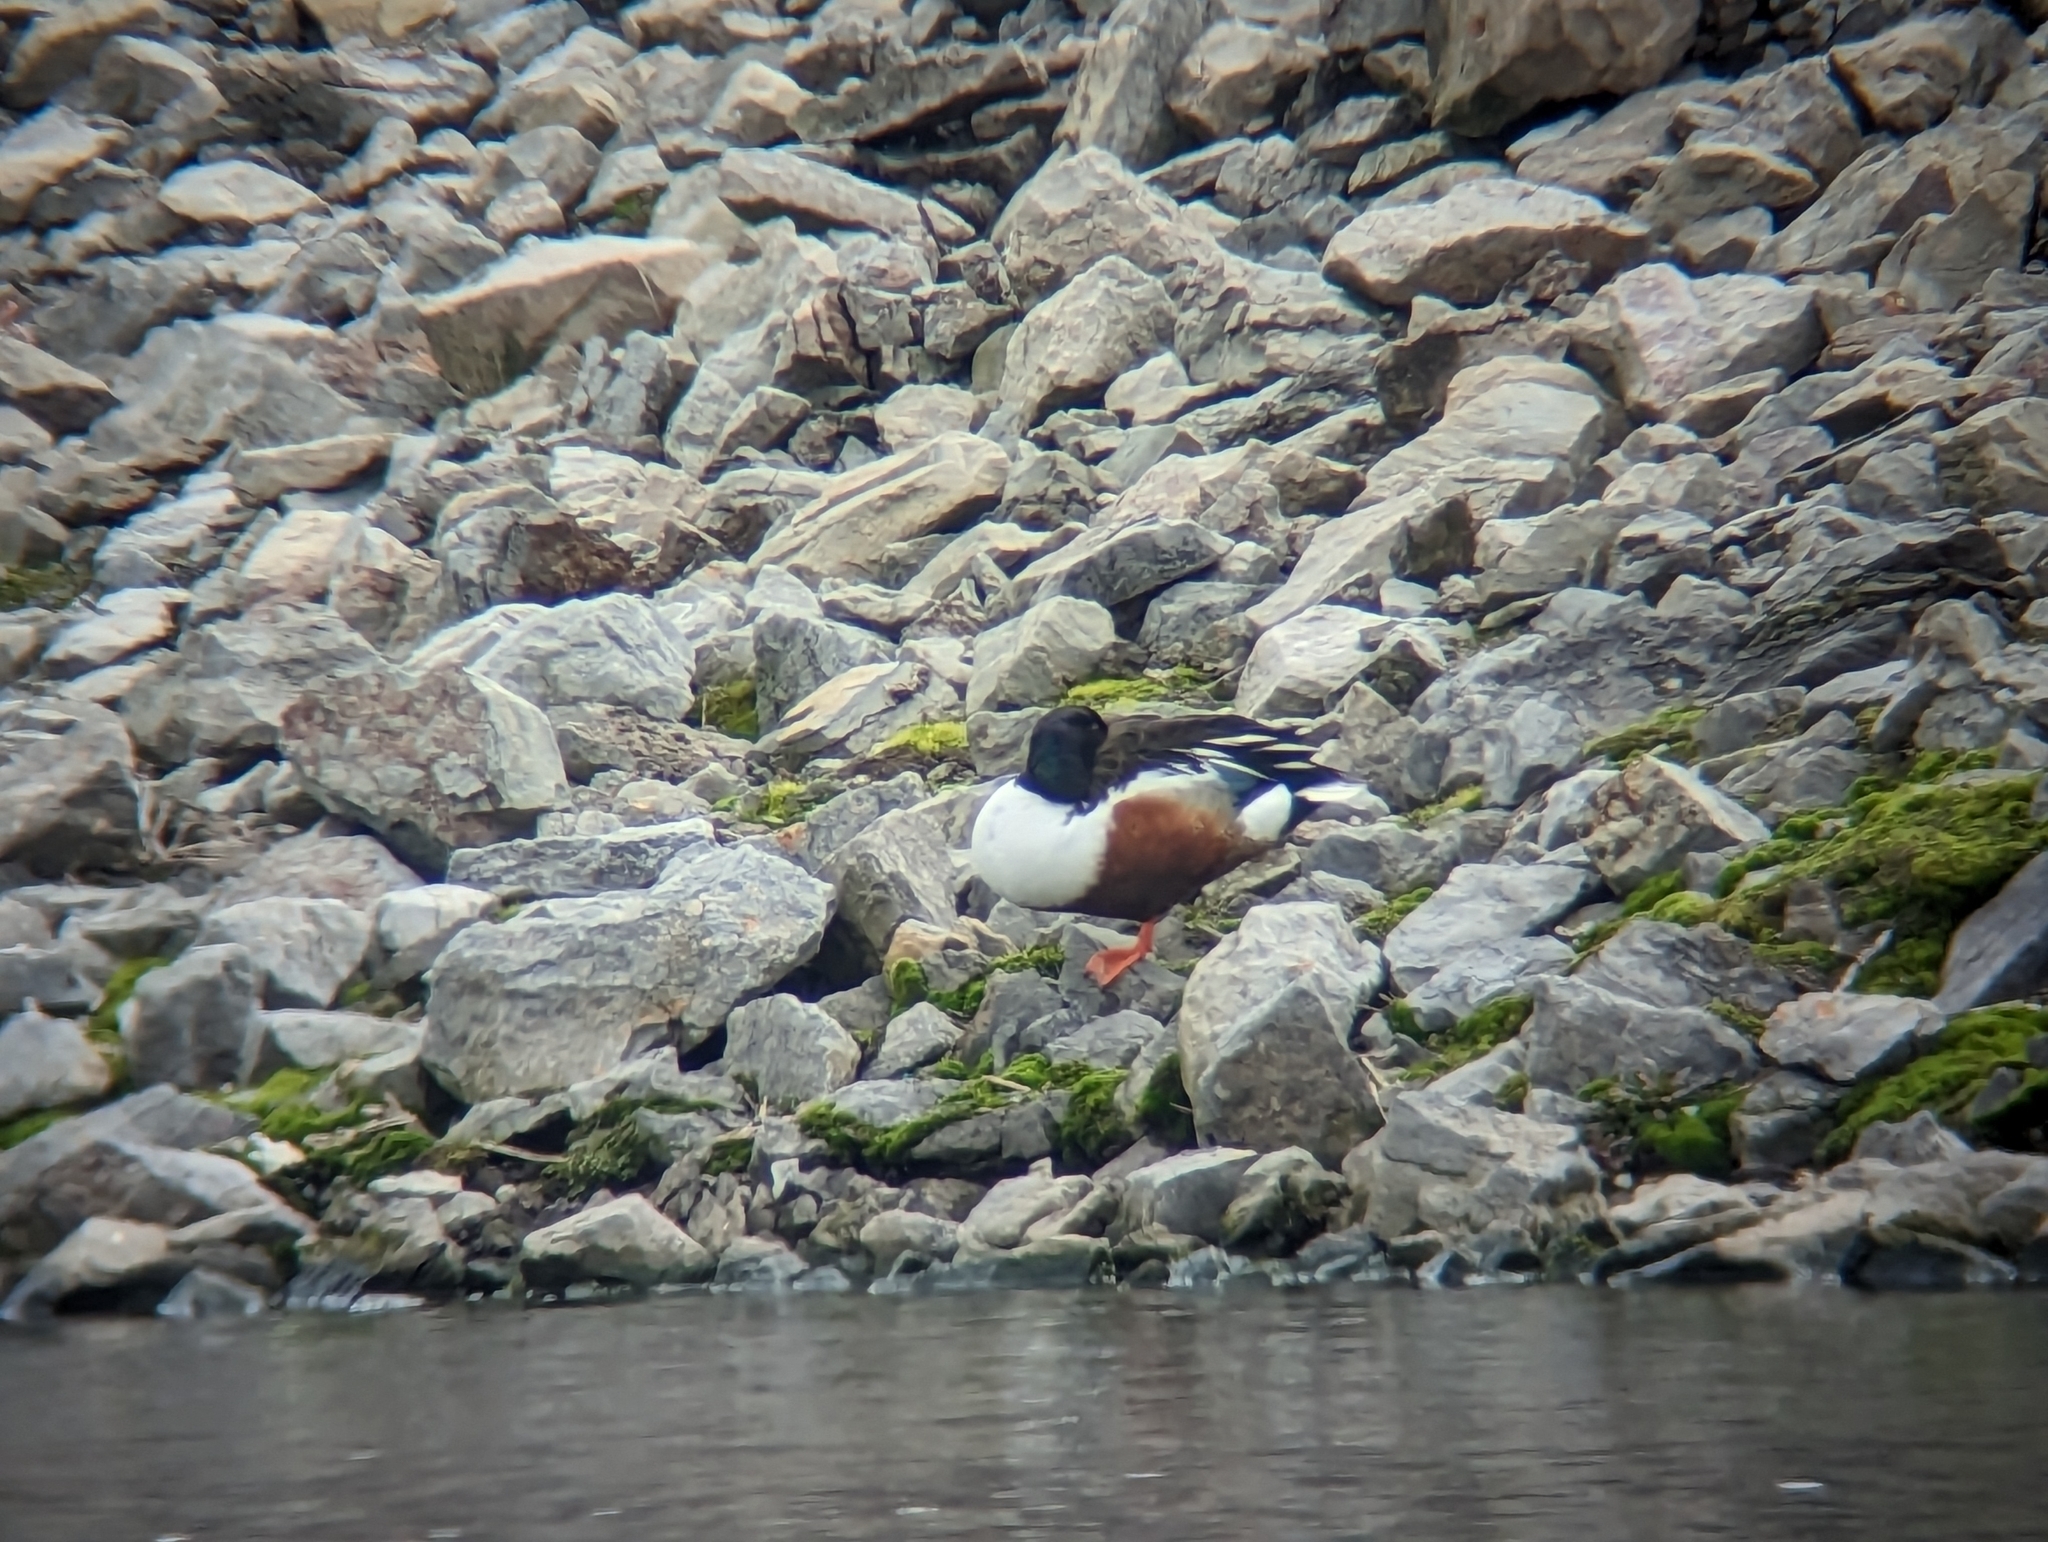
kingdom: Animalia
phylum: Chordata
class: Aves
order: Anseriformes
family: Anatidae
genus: Spatula
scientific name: Spatula clypeata
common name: Northern shoveler
